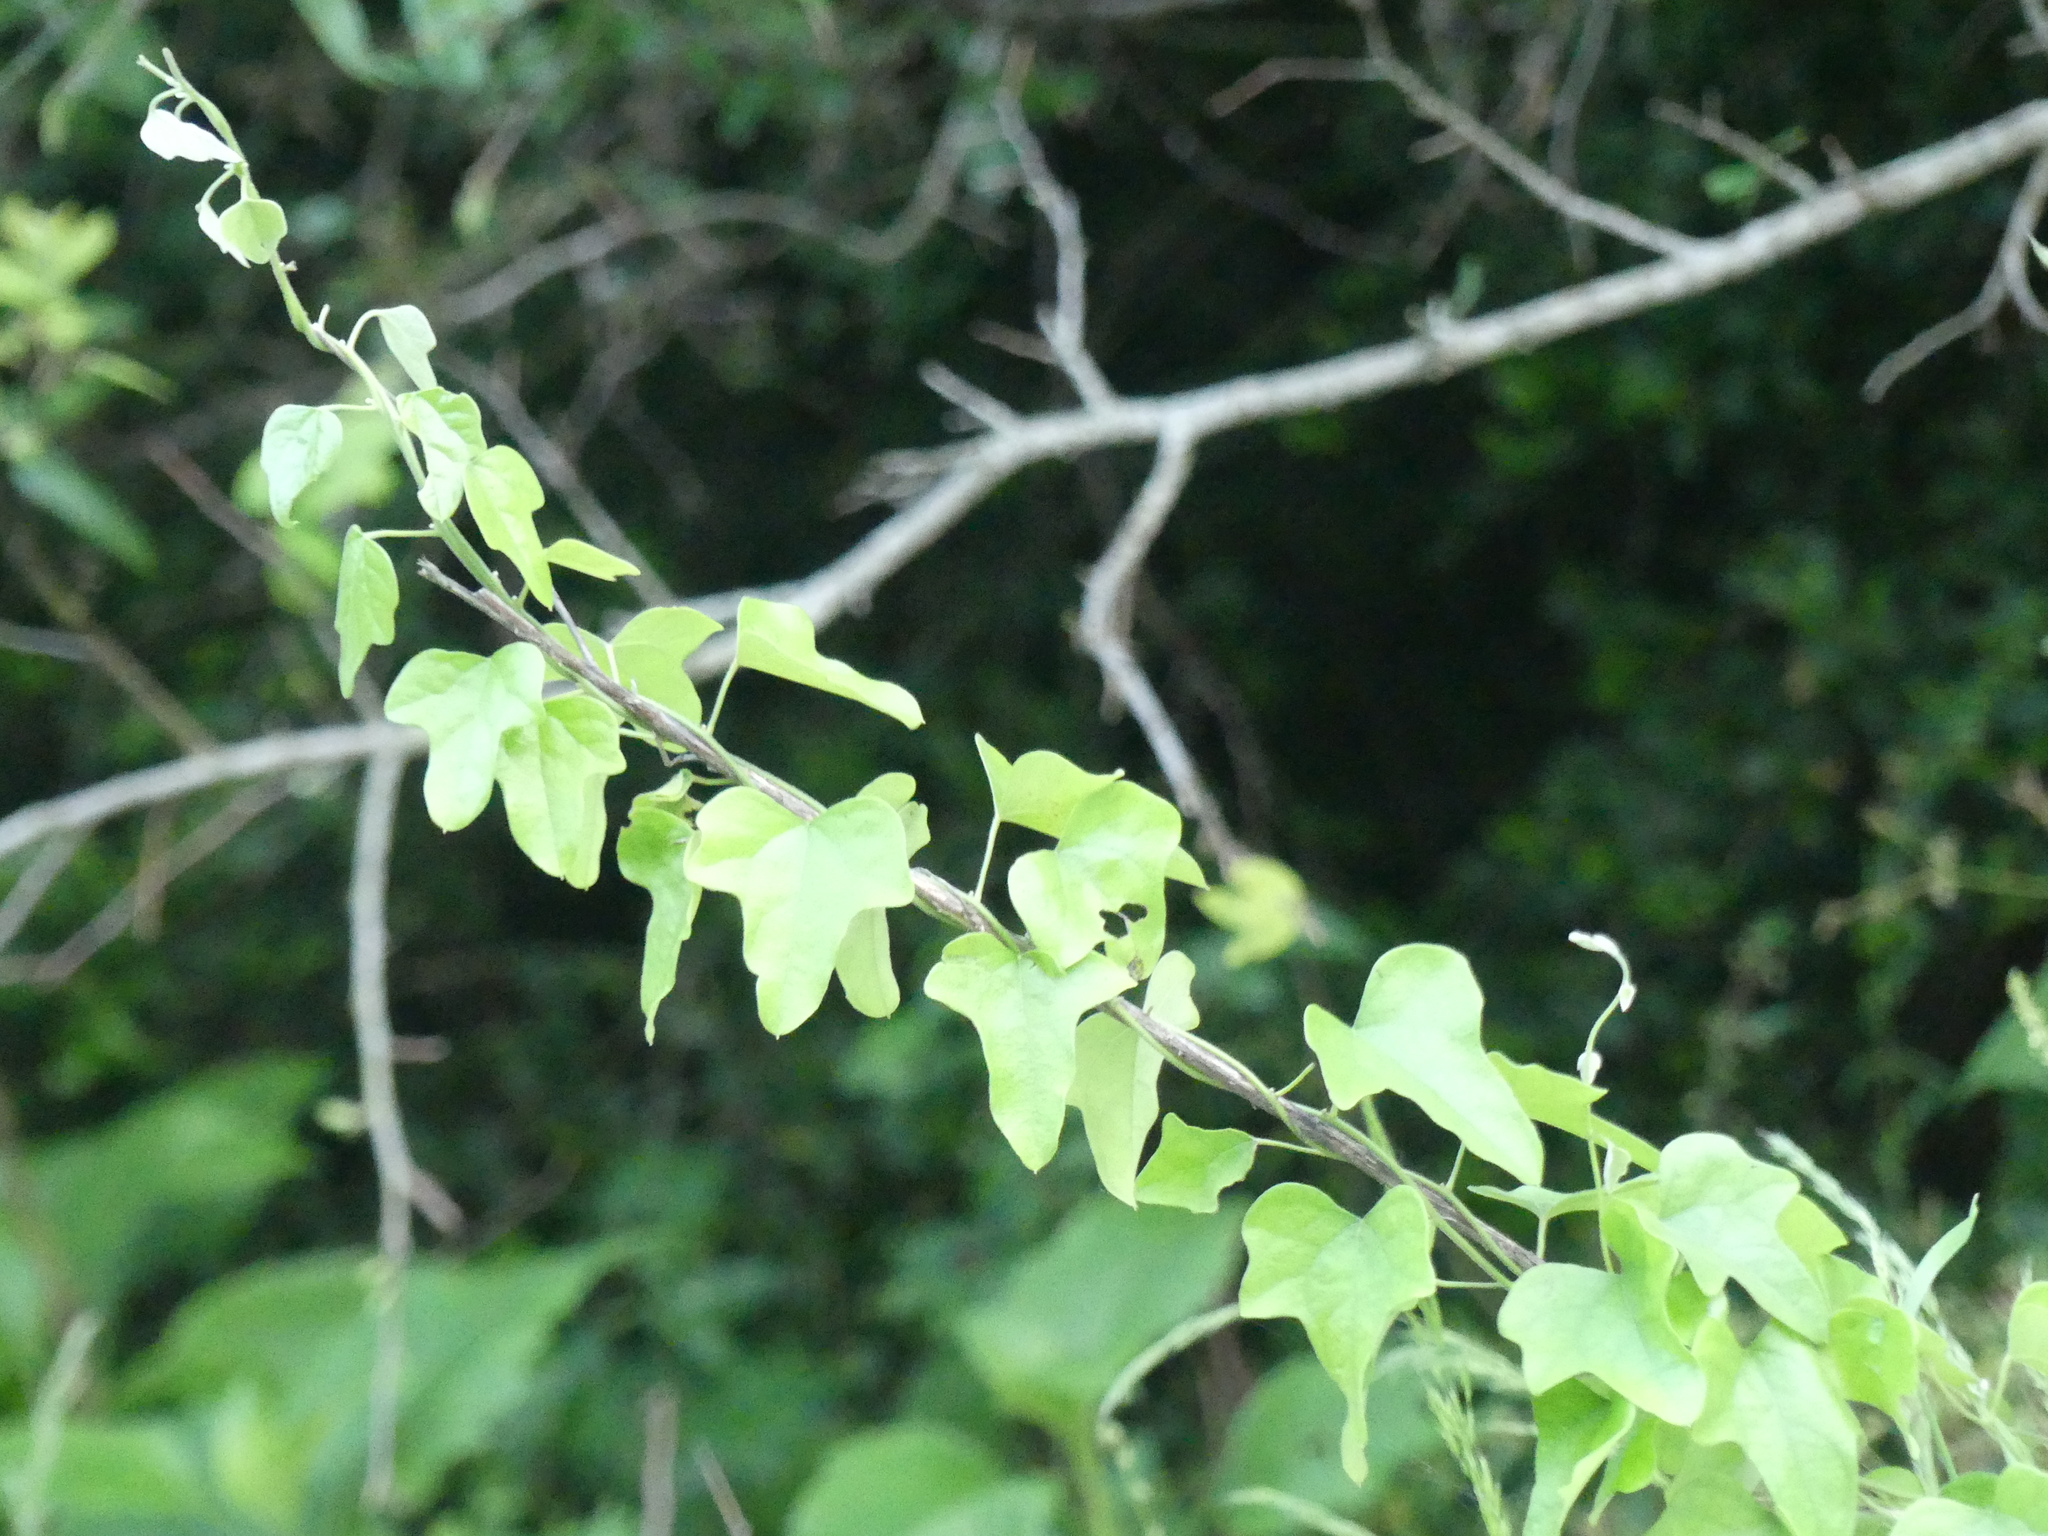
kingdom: Plantae
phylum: Tracheophyta
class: Magnoliopsida
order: Ranunculales
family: Menispermaceae
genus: Cocculus
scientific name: Cocculus carolinus
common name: Carolina moonseed
